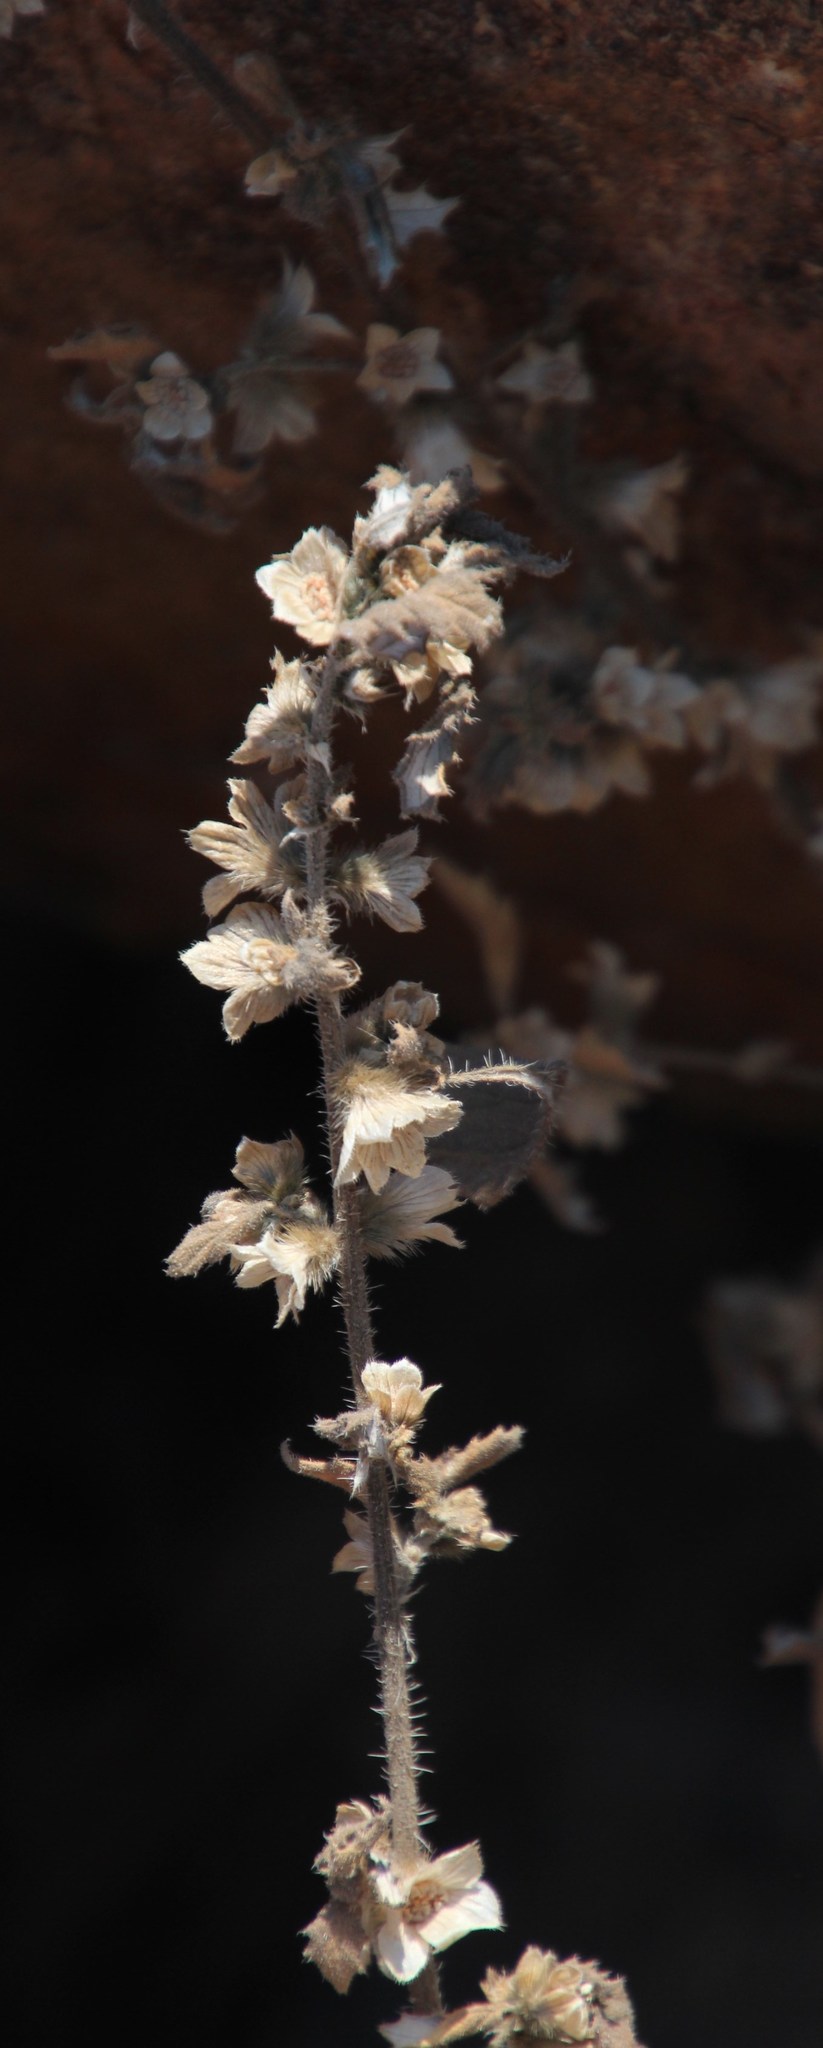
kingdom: Plantae
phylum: Tracheophyta
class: Magnoliopsida
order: Rosales
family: Urticaceae
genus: Forsskaolea
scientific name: Forsskaolea candida
